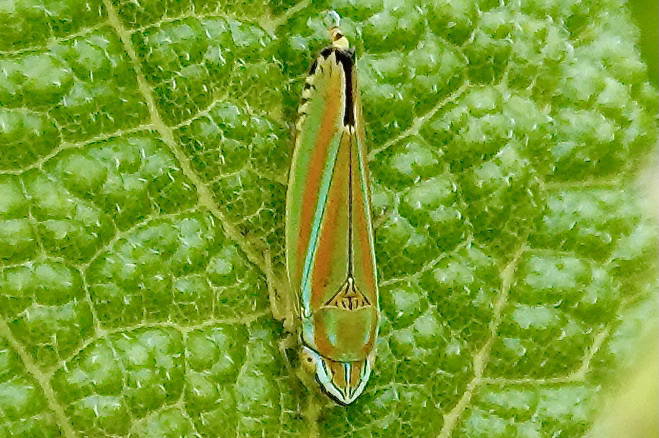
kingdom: Animalia
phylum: Arthropoda
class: Insecta
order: Hemiptera
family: Cicadellidae
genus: Graphocephala
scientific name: Graphocephala versuta
